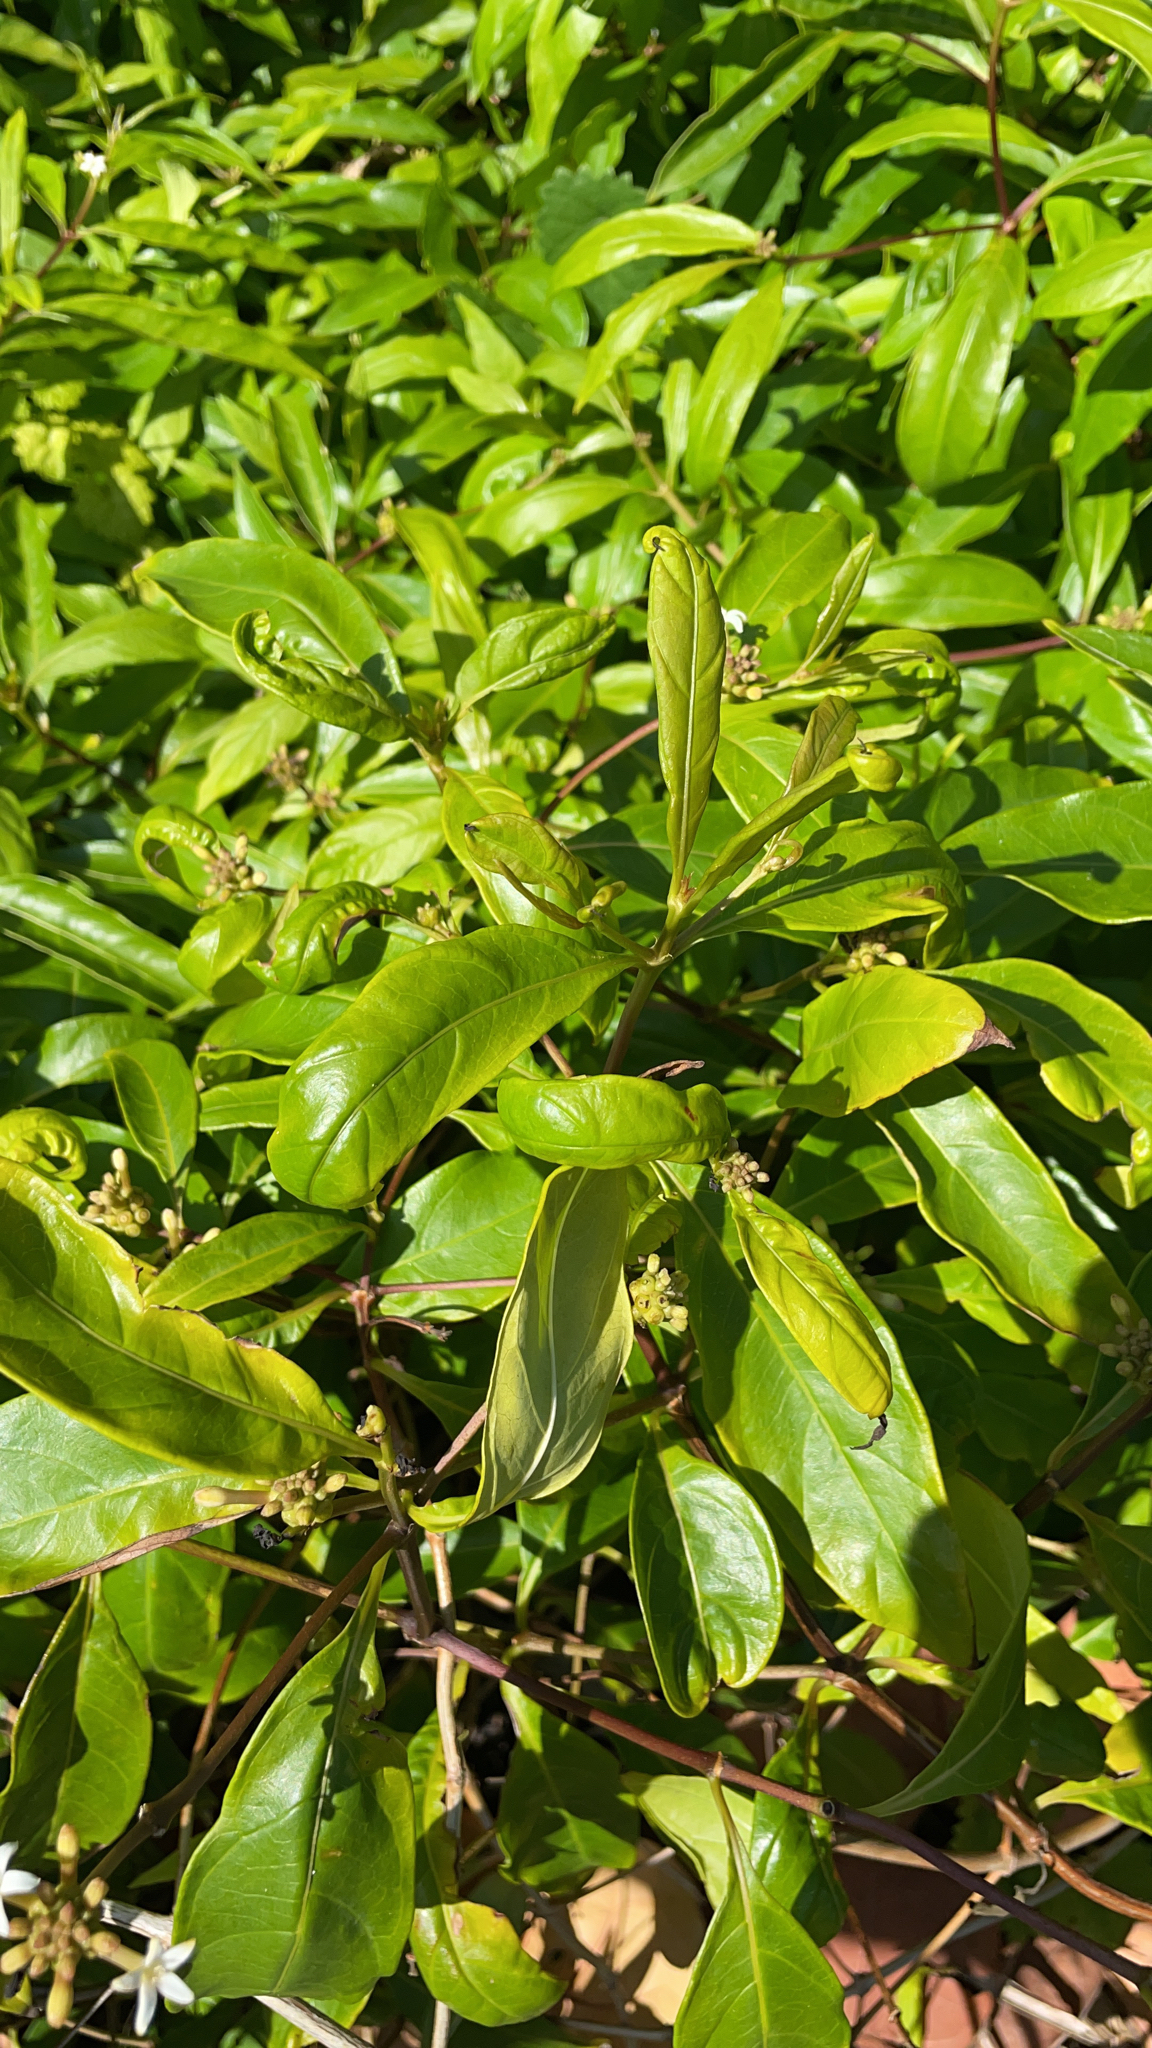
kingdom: Plantae
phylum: Tracheophyta
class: Magnoliopsida
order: Gentianales
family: Rubiaceae
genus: Morinda
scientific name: Morinda royoc
